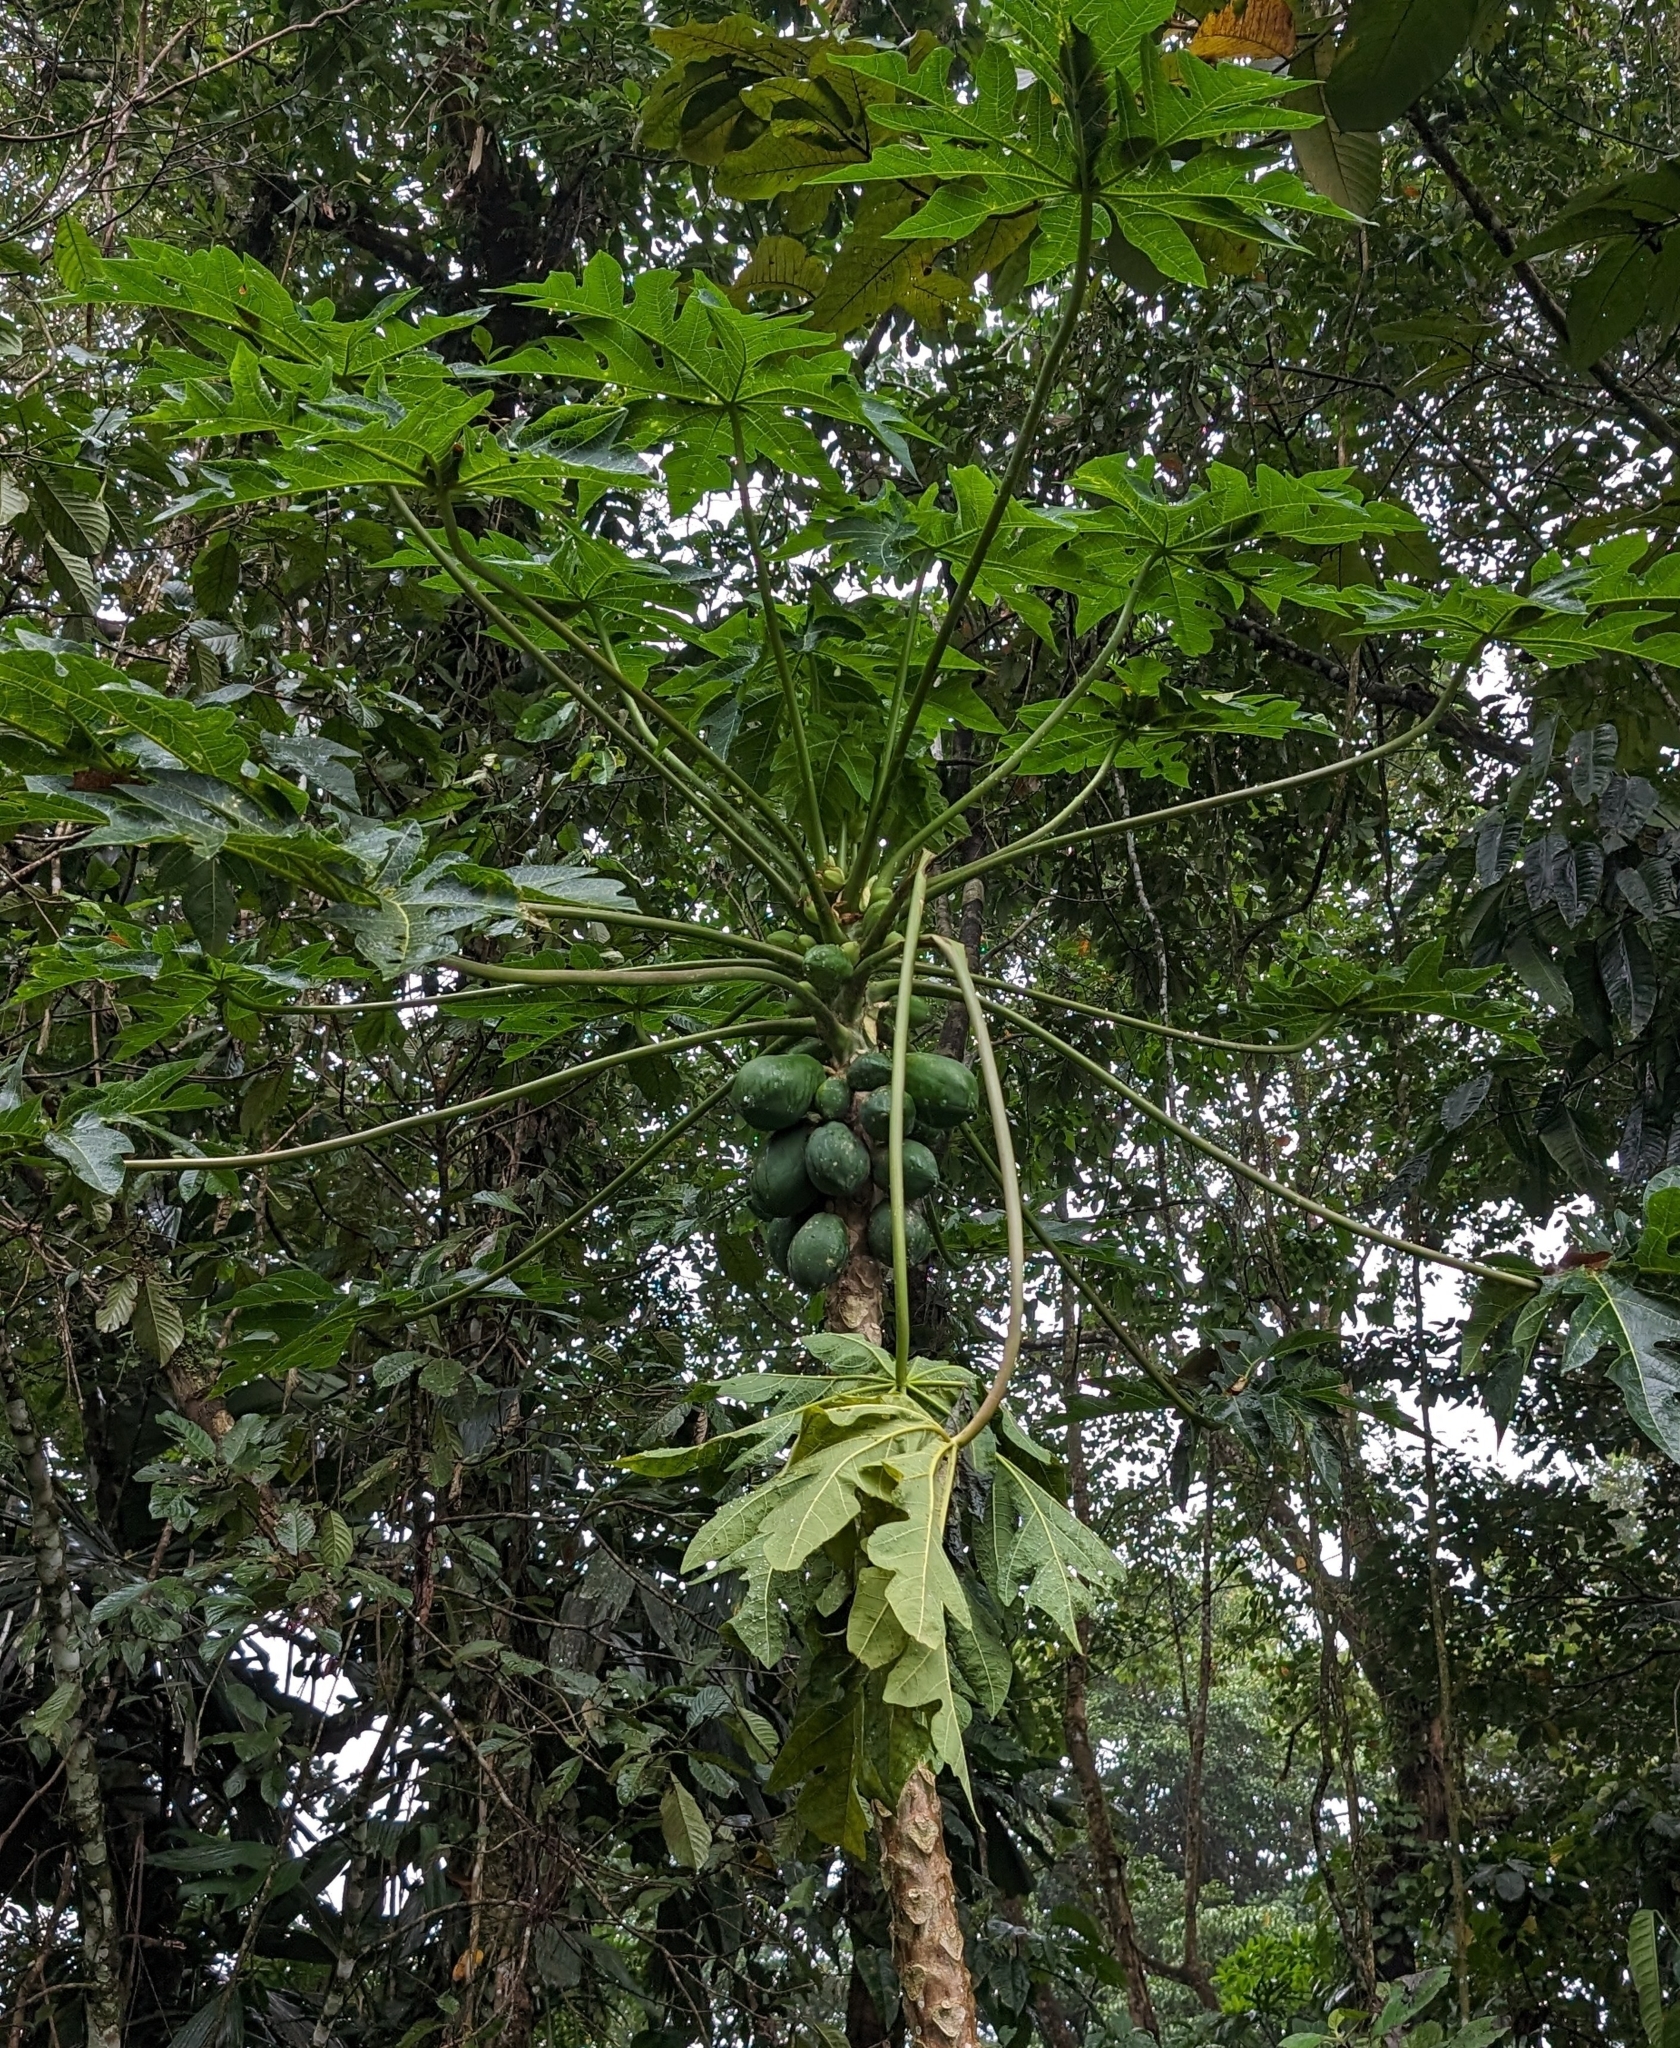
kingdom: Plantae
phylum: Tracheophyta
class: Magnoliopsida
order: Brassicales
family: Caricaceae
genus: Carica
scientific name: Carica papaya
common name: Papaya
